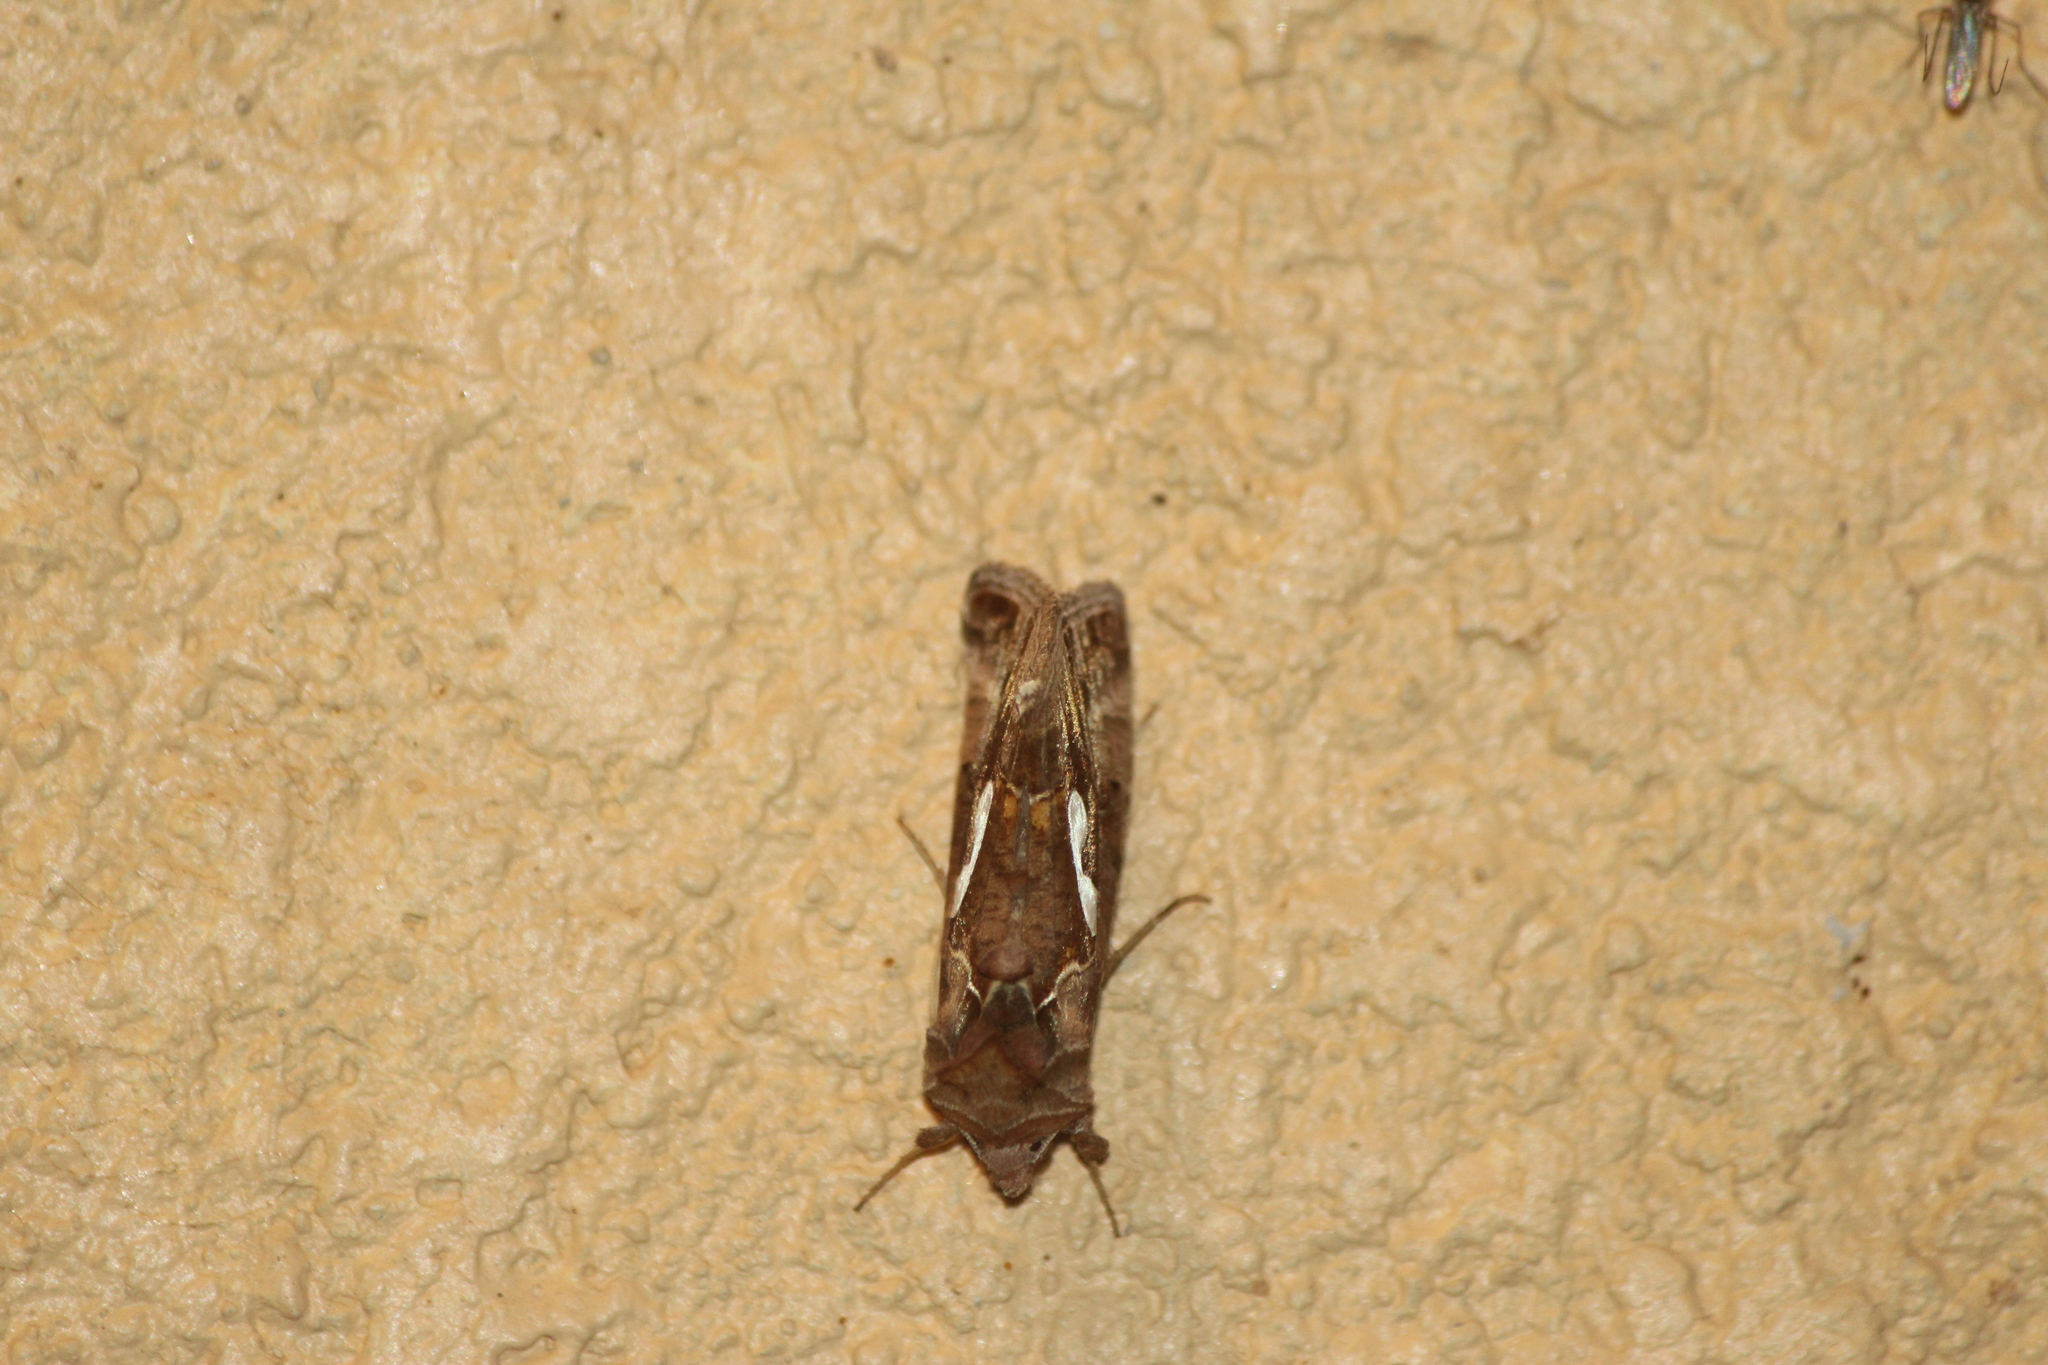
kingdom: Animalia
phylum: Arthropoda
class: Insecta
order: Lepidoptera
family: Noctuidae
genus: Megalographa
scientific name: Megalographa biloba
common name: Cutworm
